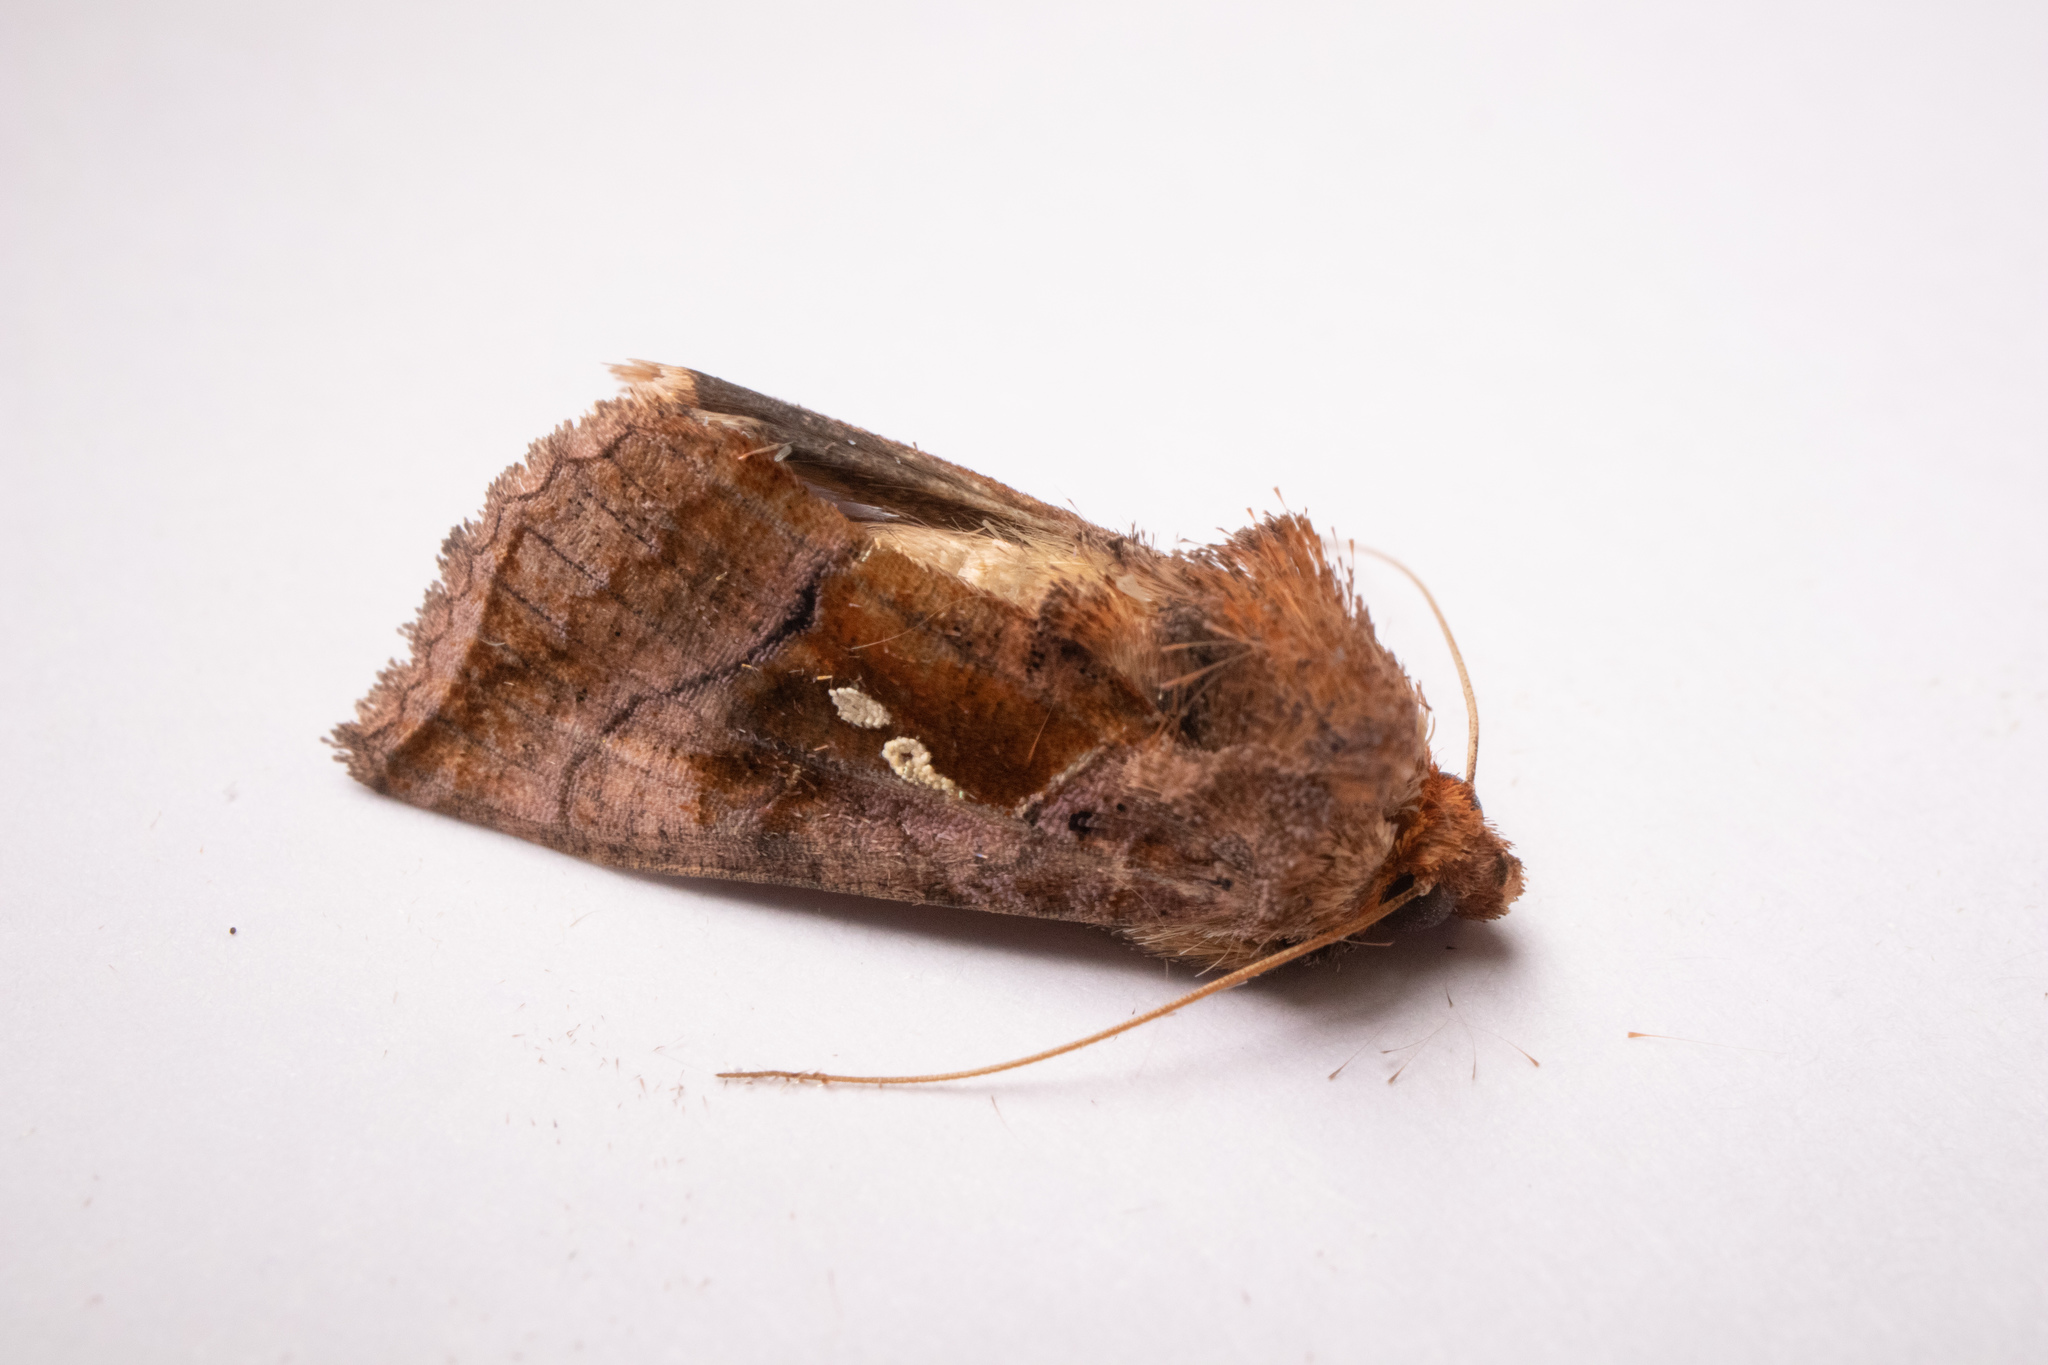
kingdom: Animalia
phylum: Arthropoda
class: Insecta
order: Lepidoptera
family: Noctuidae
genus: Enigmogramma
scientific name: Enigmogramma basigera
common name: Pink-washed looper moth
